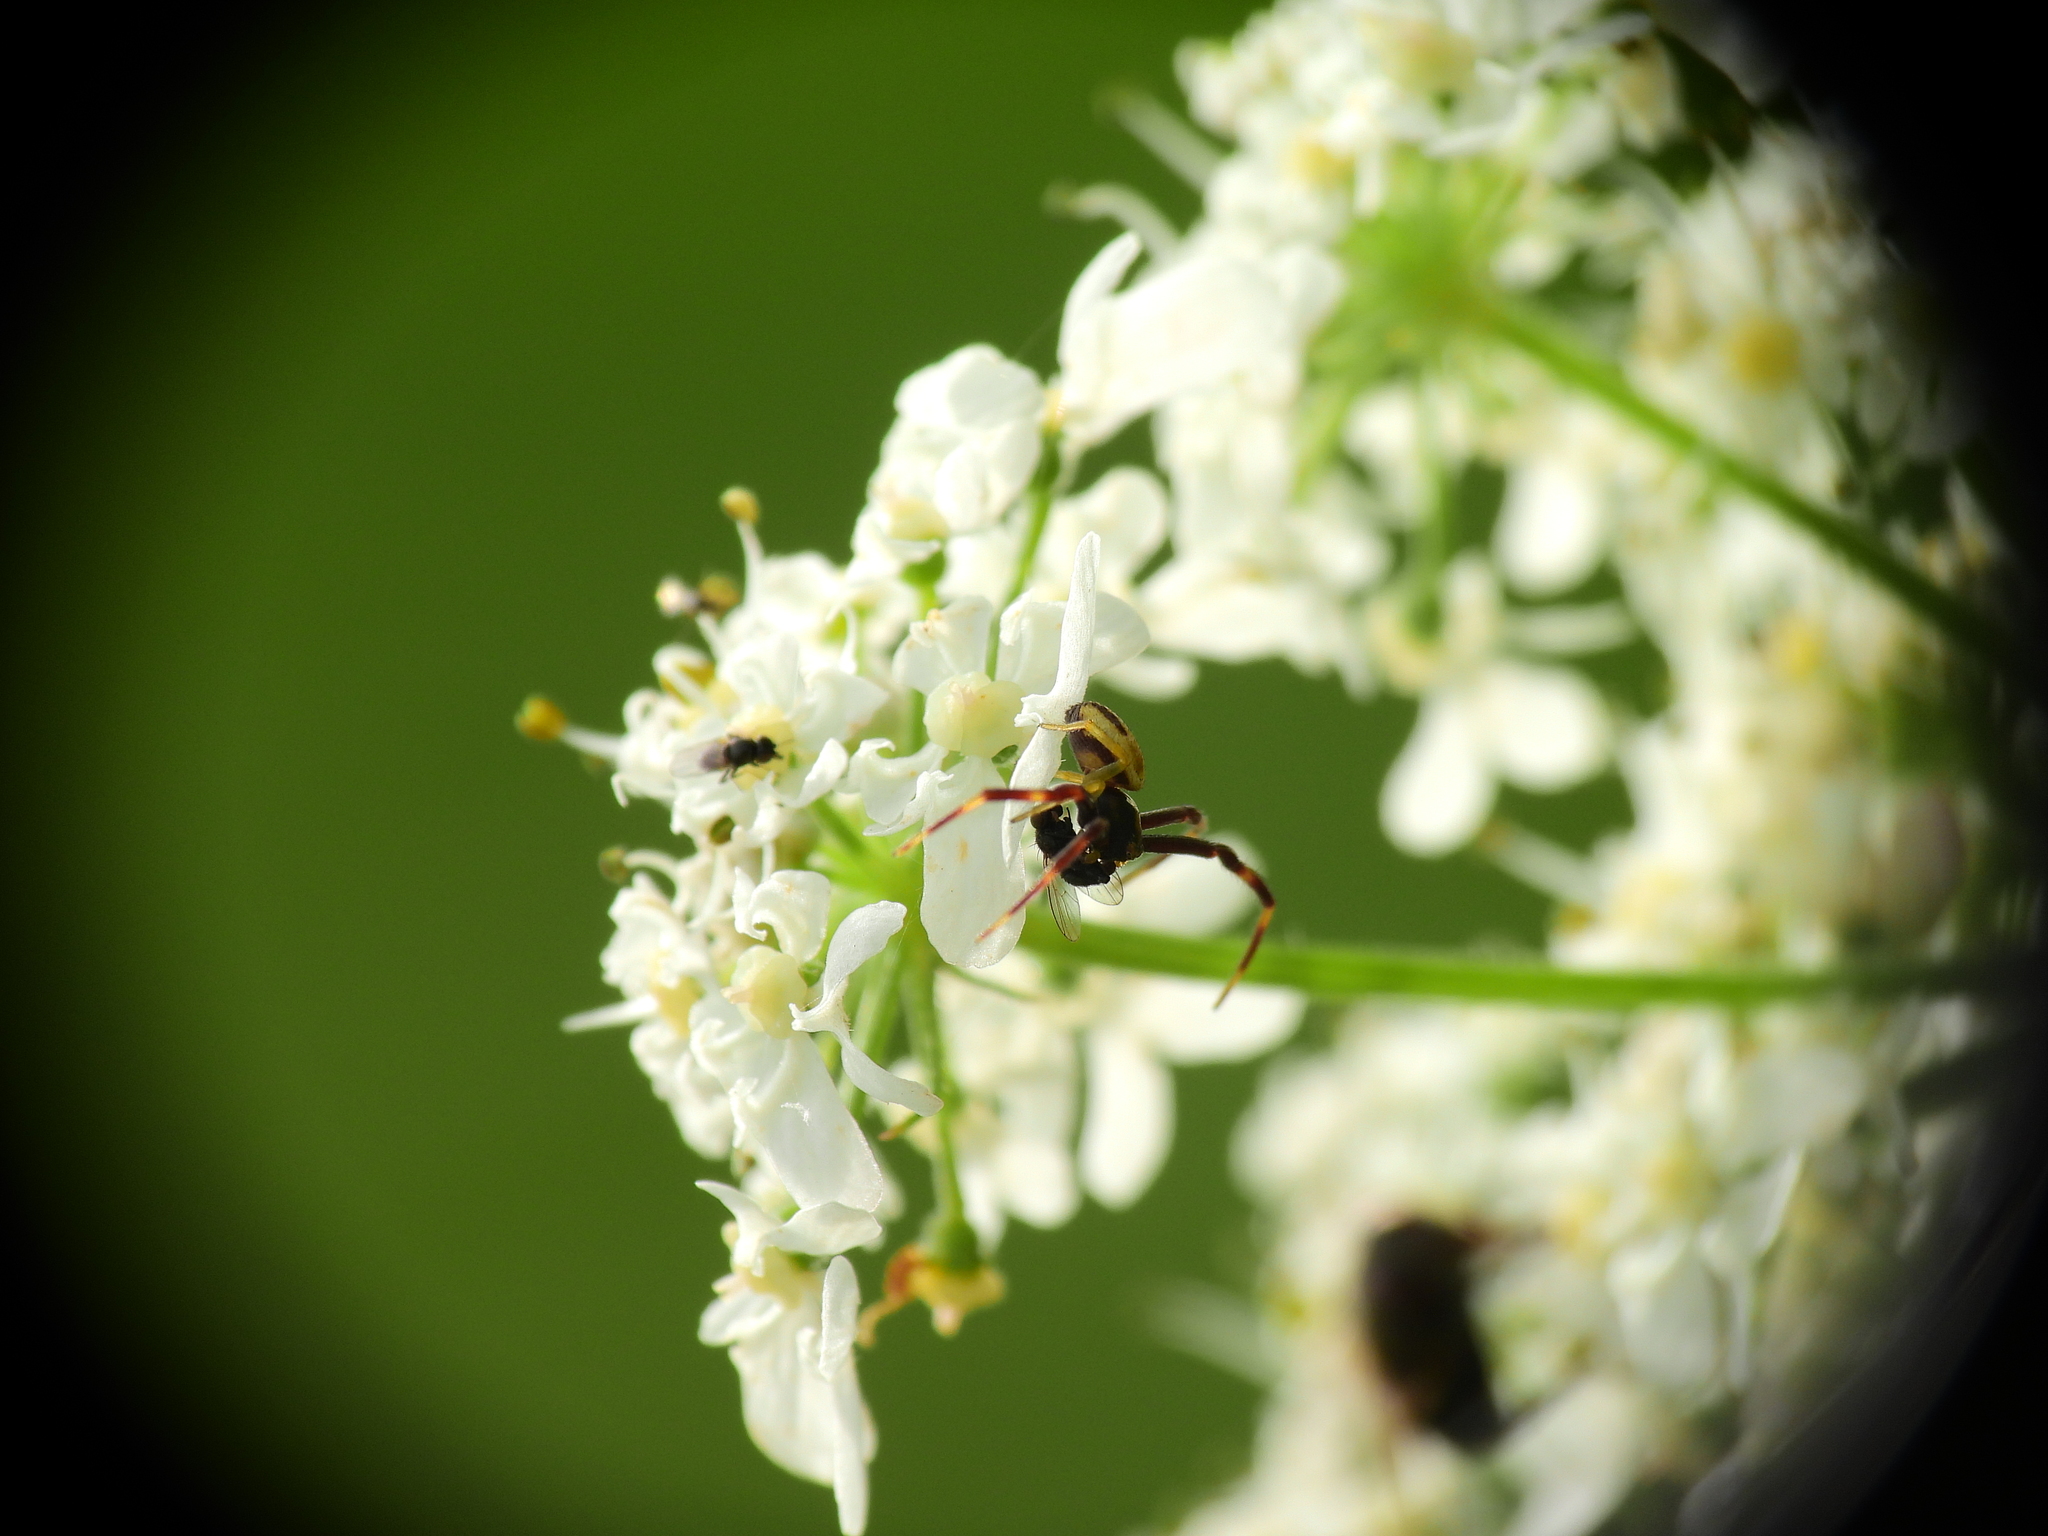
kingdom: Animalia
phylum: Arthropoda
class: Arachnida
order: Araneae
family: Thomisidae
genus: Misumena
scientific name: Misumena vatia
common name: Goldenrod crab spider
